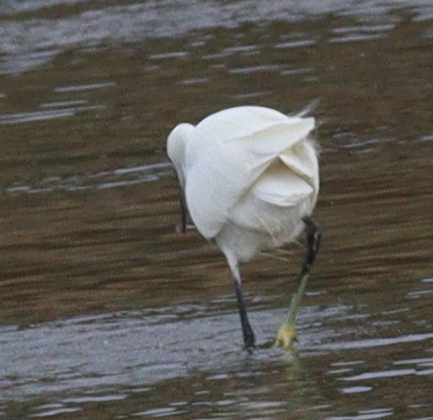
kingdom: Animalia
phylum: Chordata
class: Aves
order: Pelecaniformes
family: Ardeidae
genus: Egretta
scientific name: Egretta garzetta
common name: Little egret
